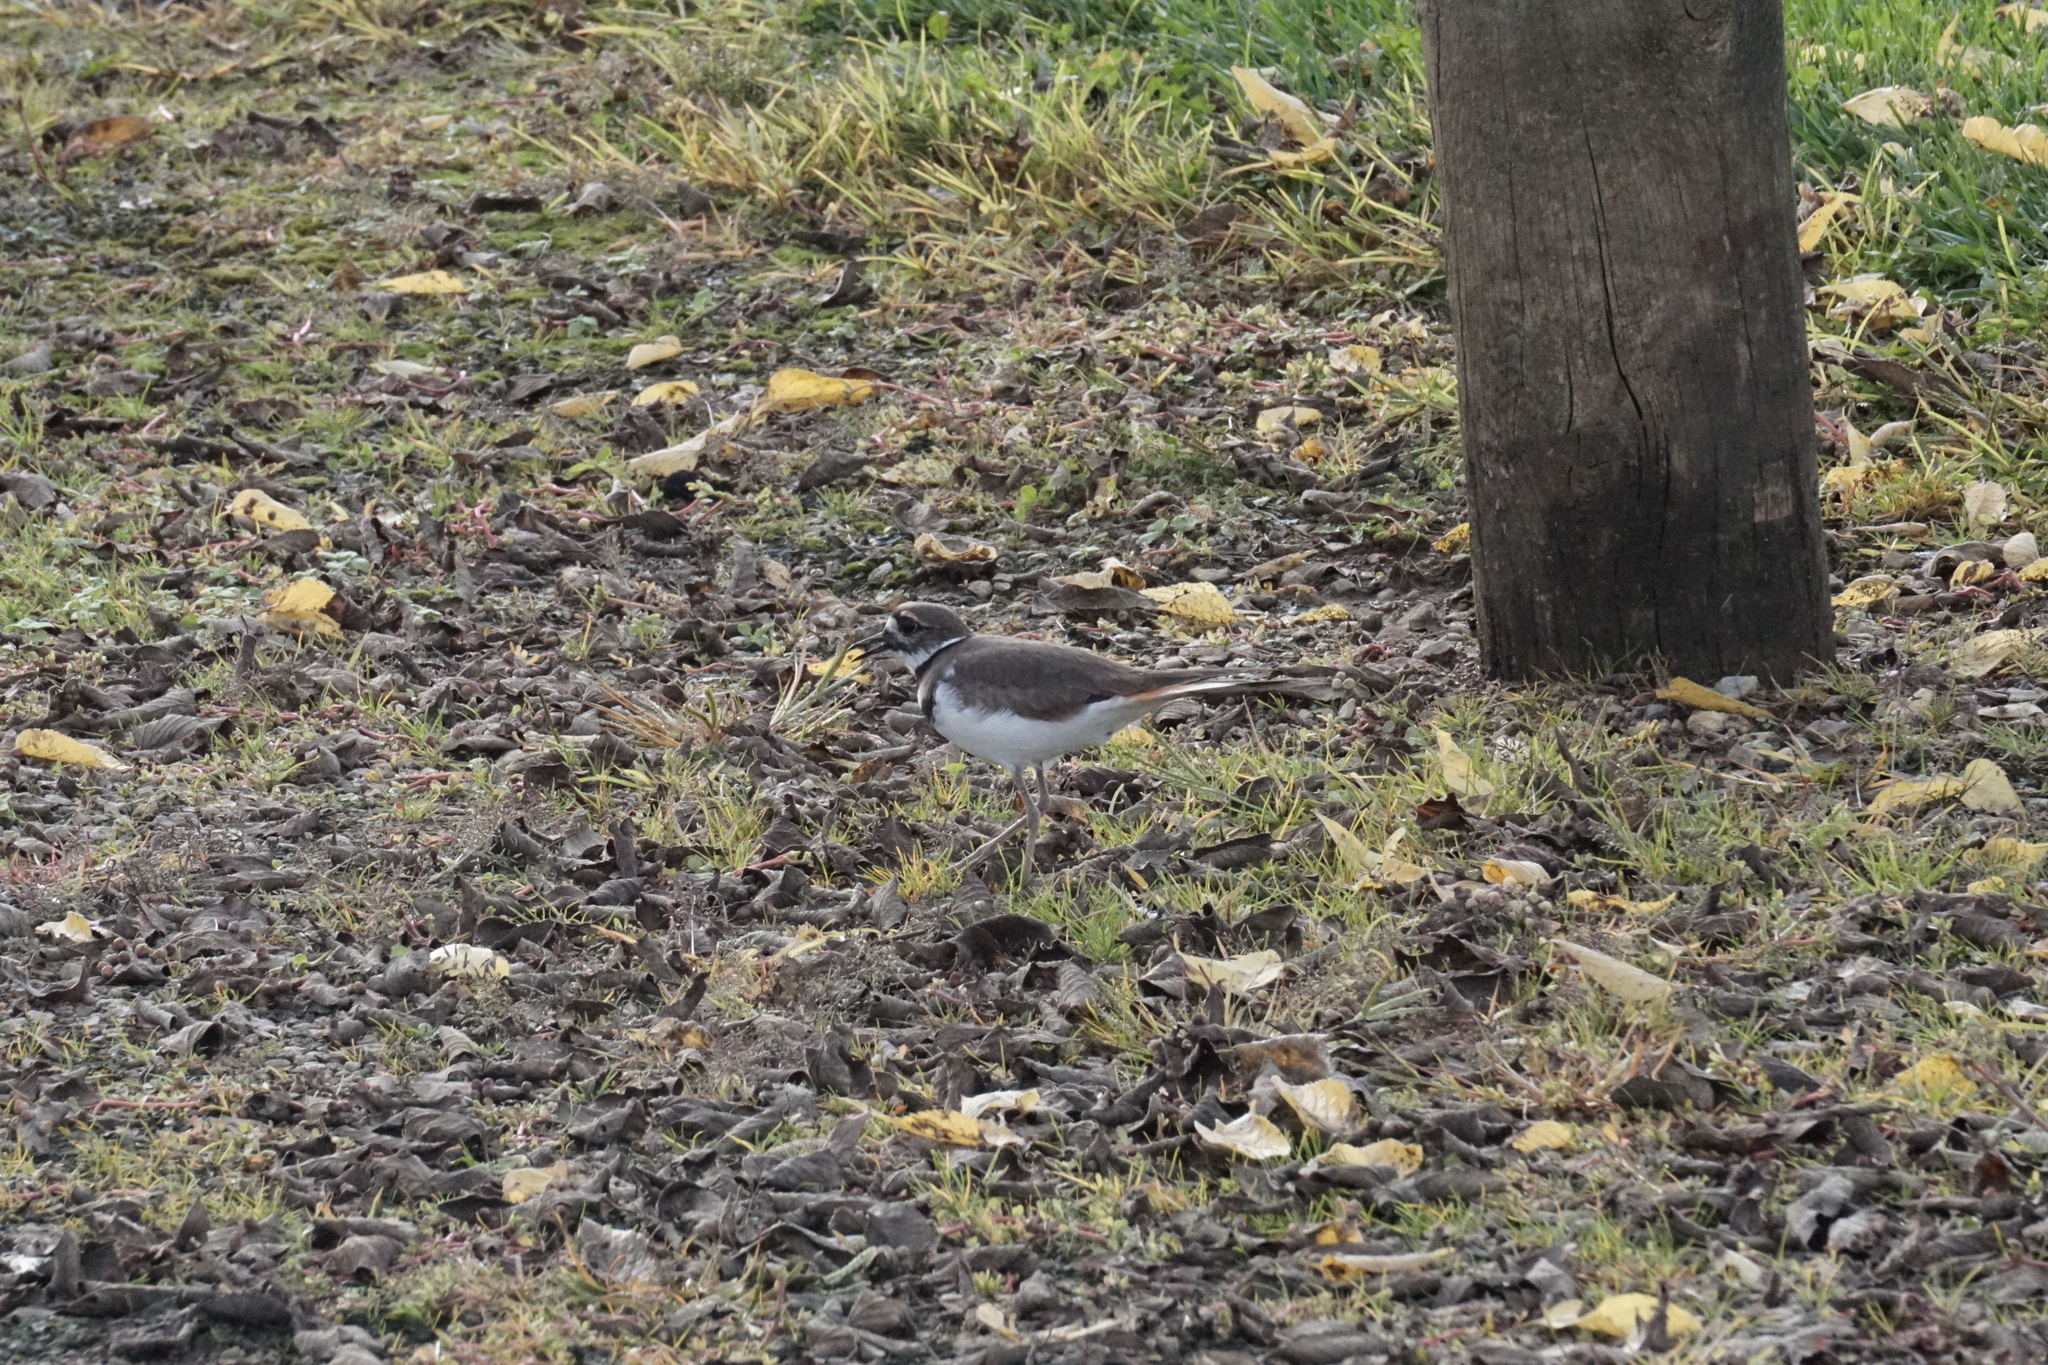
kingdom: Animalia
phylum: Chordata
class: Aves
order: Charadriiformes
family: Charadriidae
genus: Charadrius
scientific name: Charadrius vociferus
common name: Killdeer
